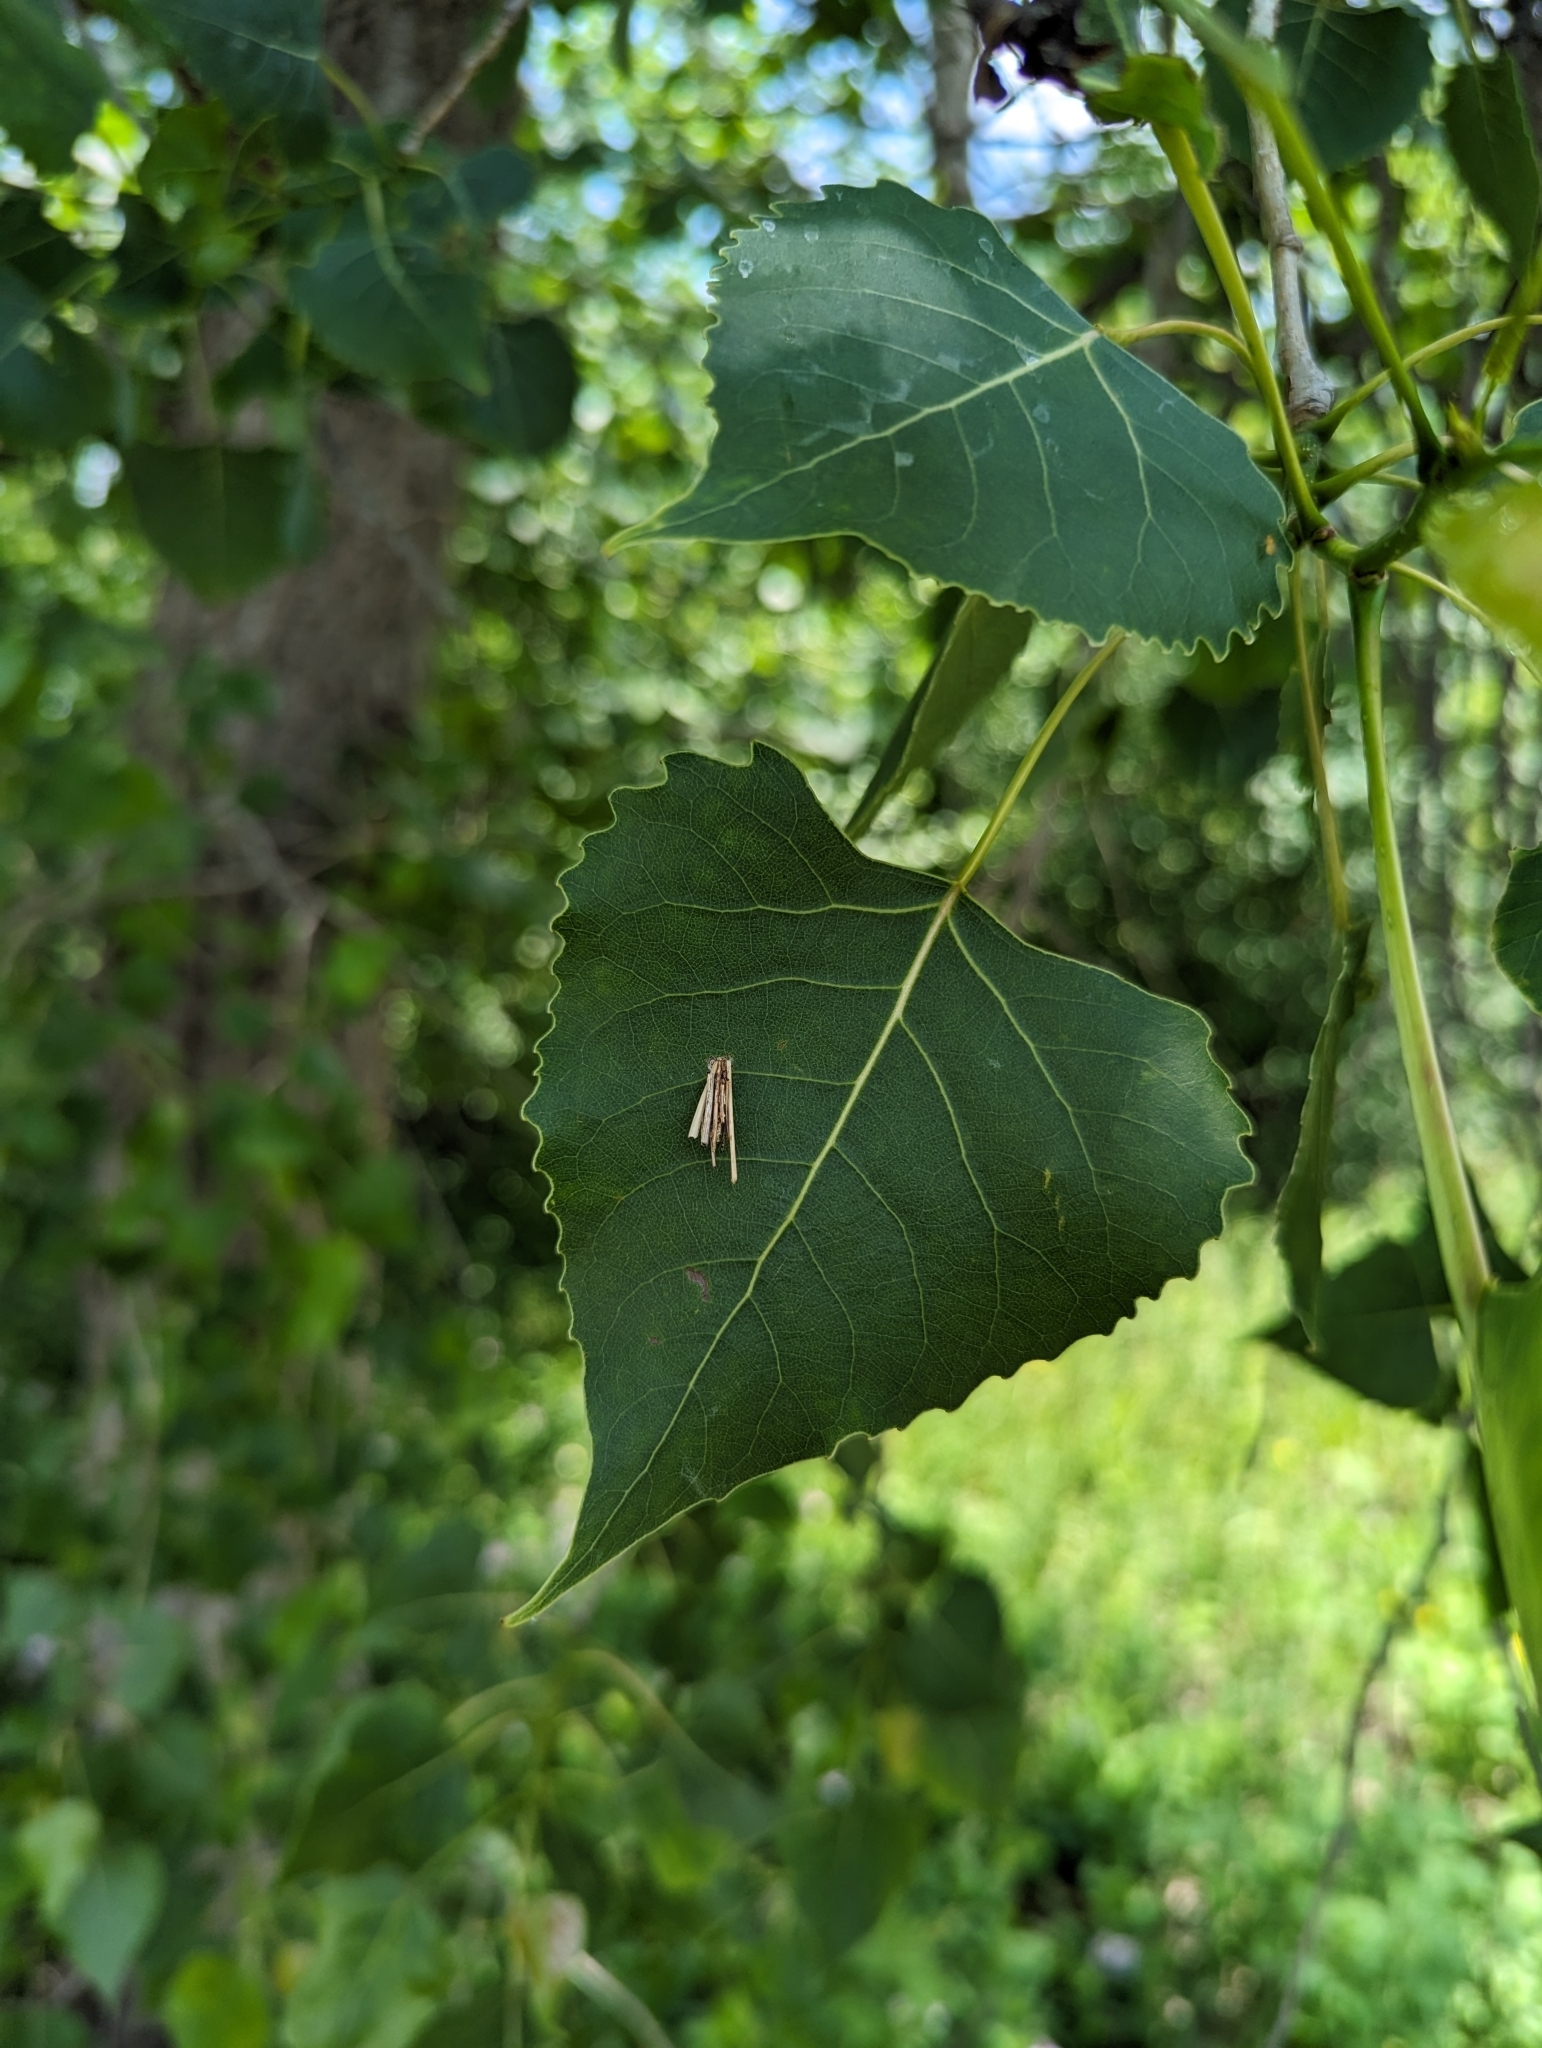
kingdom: Animalia
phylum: Arthropoda
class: Insecta
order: Lepidoptera
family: Psychidae
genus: Psyche
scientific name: Psyche casta
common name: Common sweep
